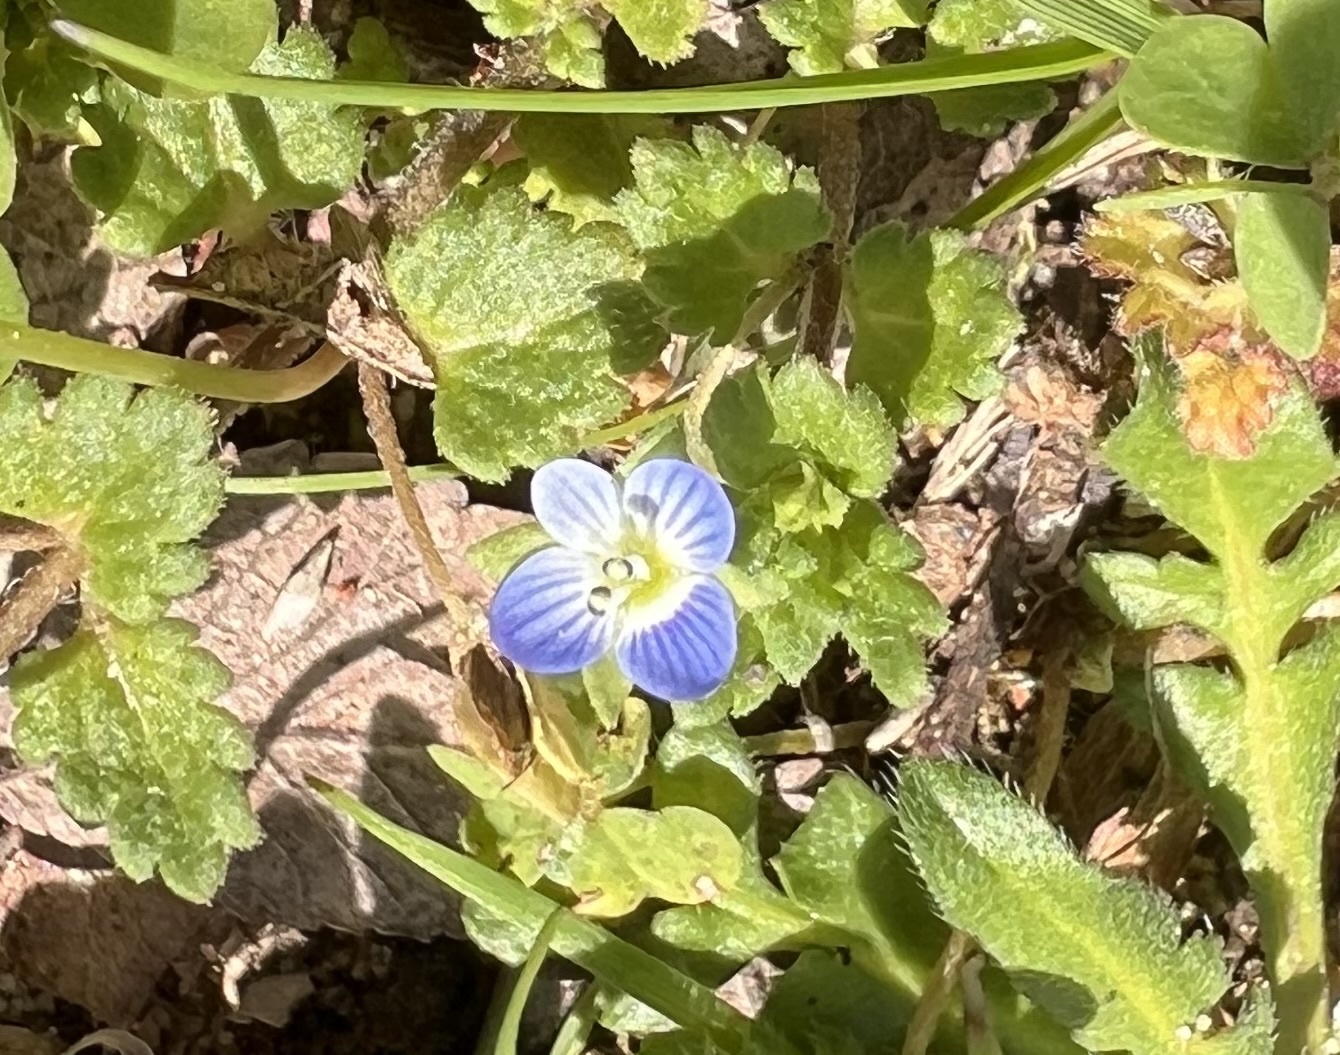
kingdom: Plantae
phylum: Tracheophyta
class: Magnoliopsida
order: Lamiales
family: Plantaginaceae
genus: Veronica
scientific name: Veronica persica
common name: Common field-speedwell
